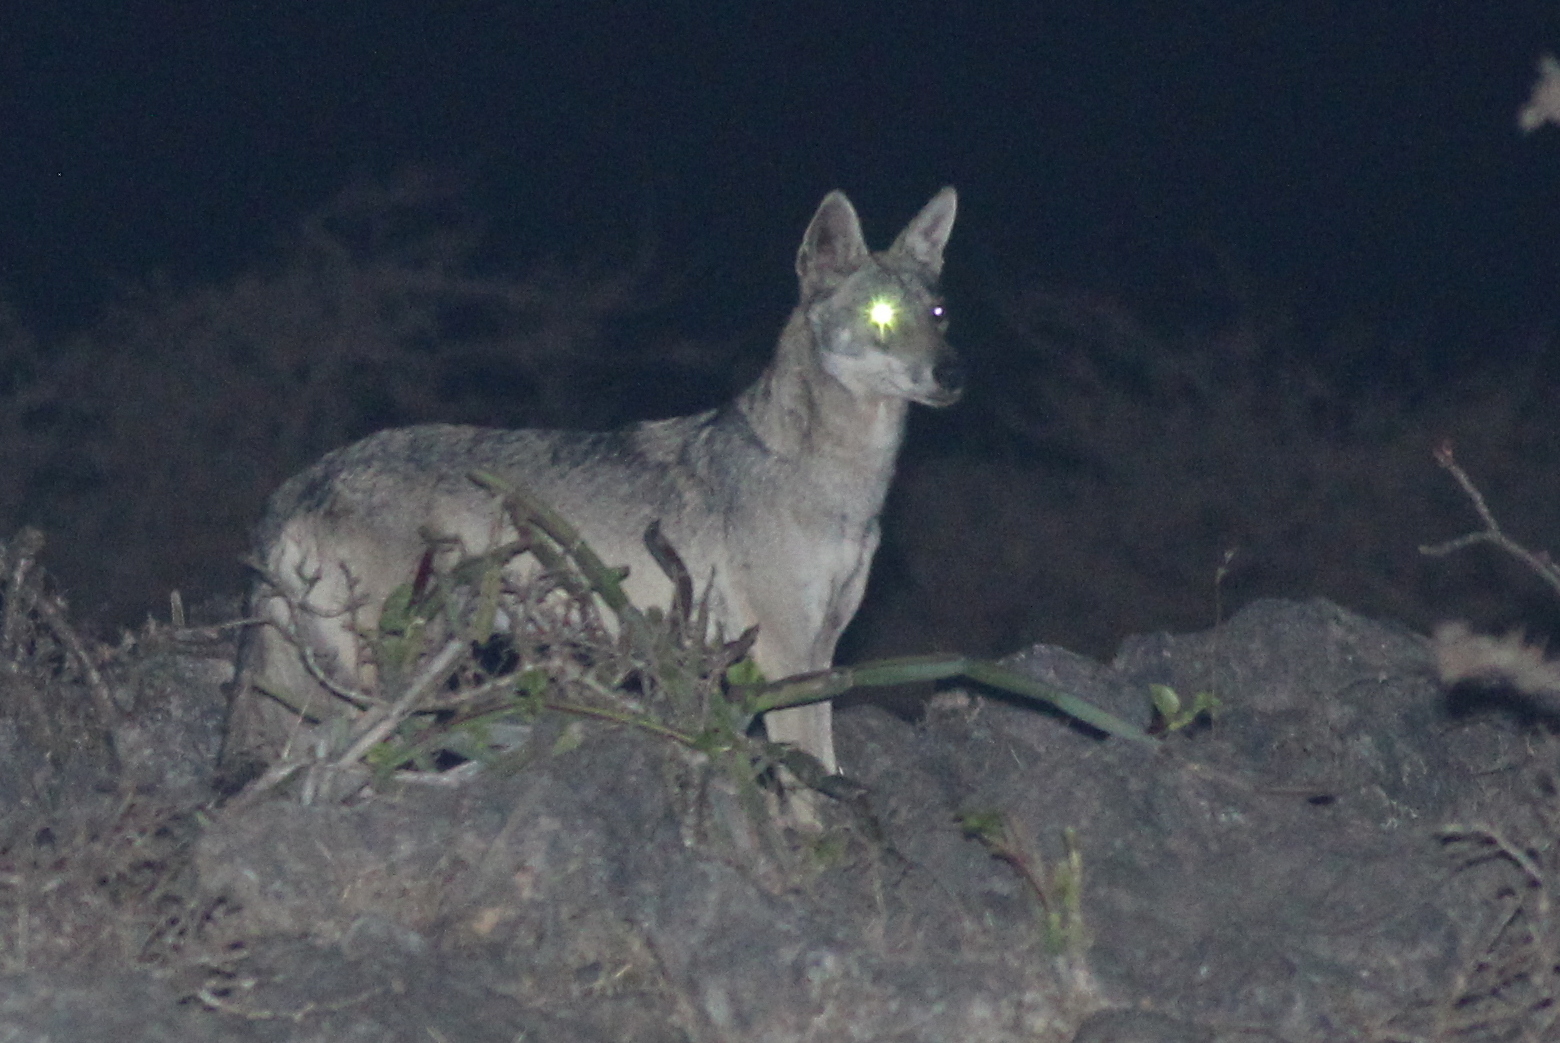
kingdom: Animalia
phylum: Chordata
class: Mammalia
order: Carnivora
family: Canidae
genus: Canis
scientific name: Canis lupus
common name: Gray wolf
